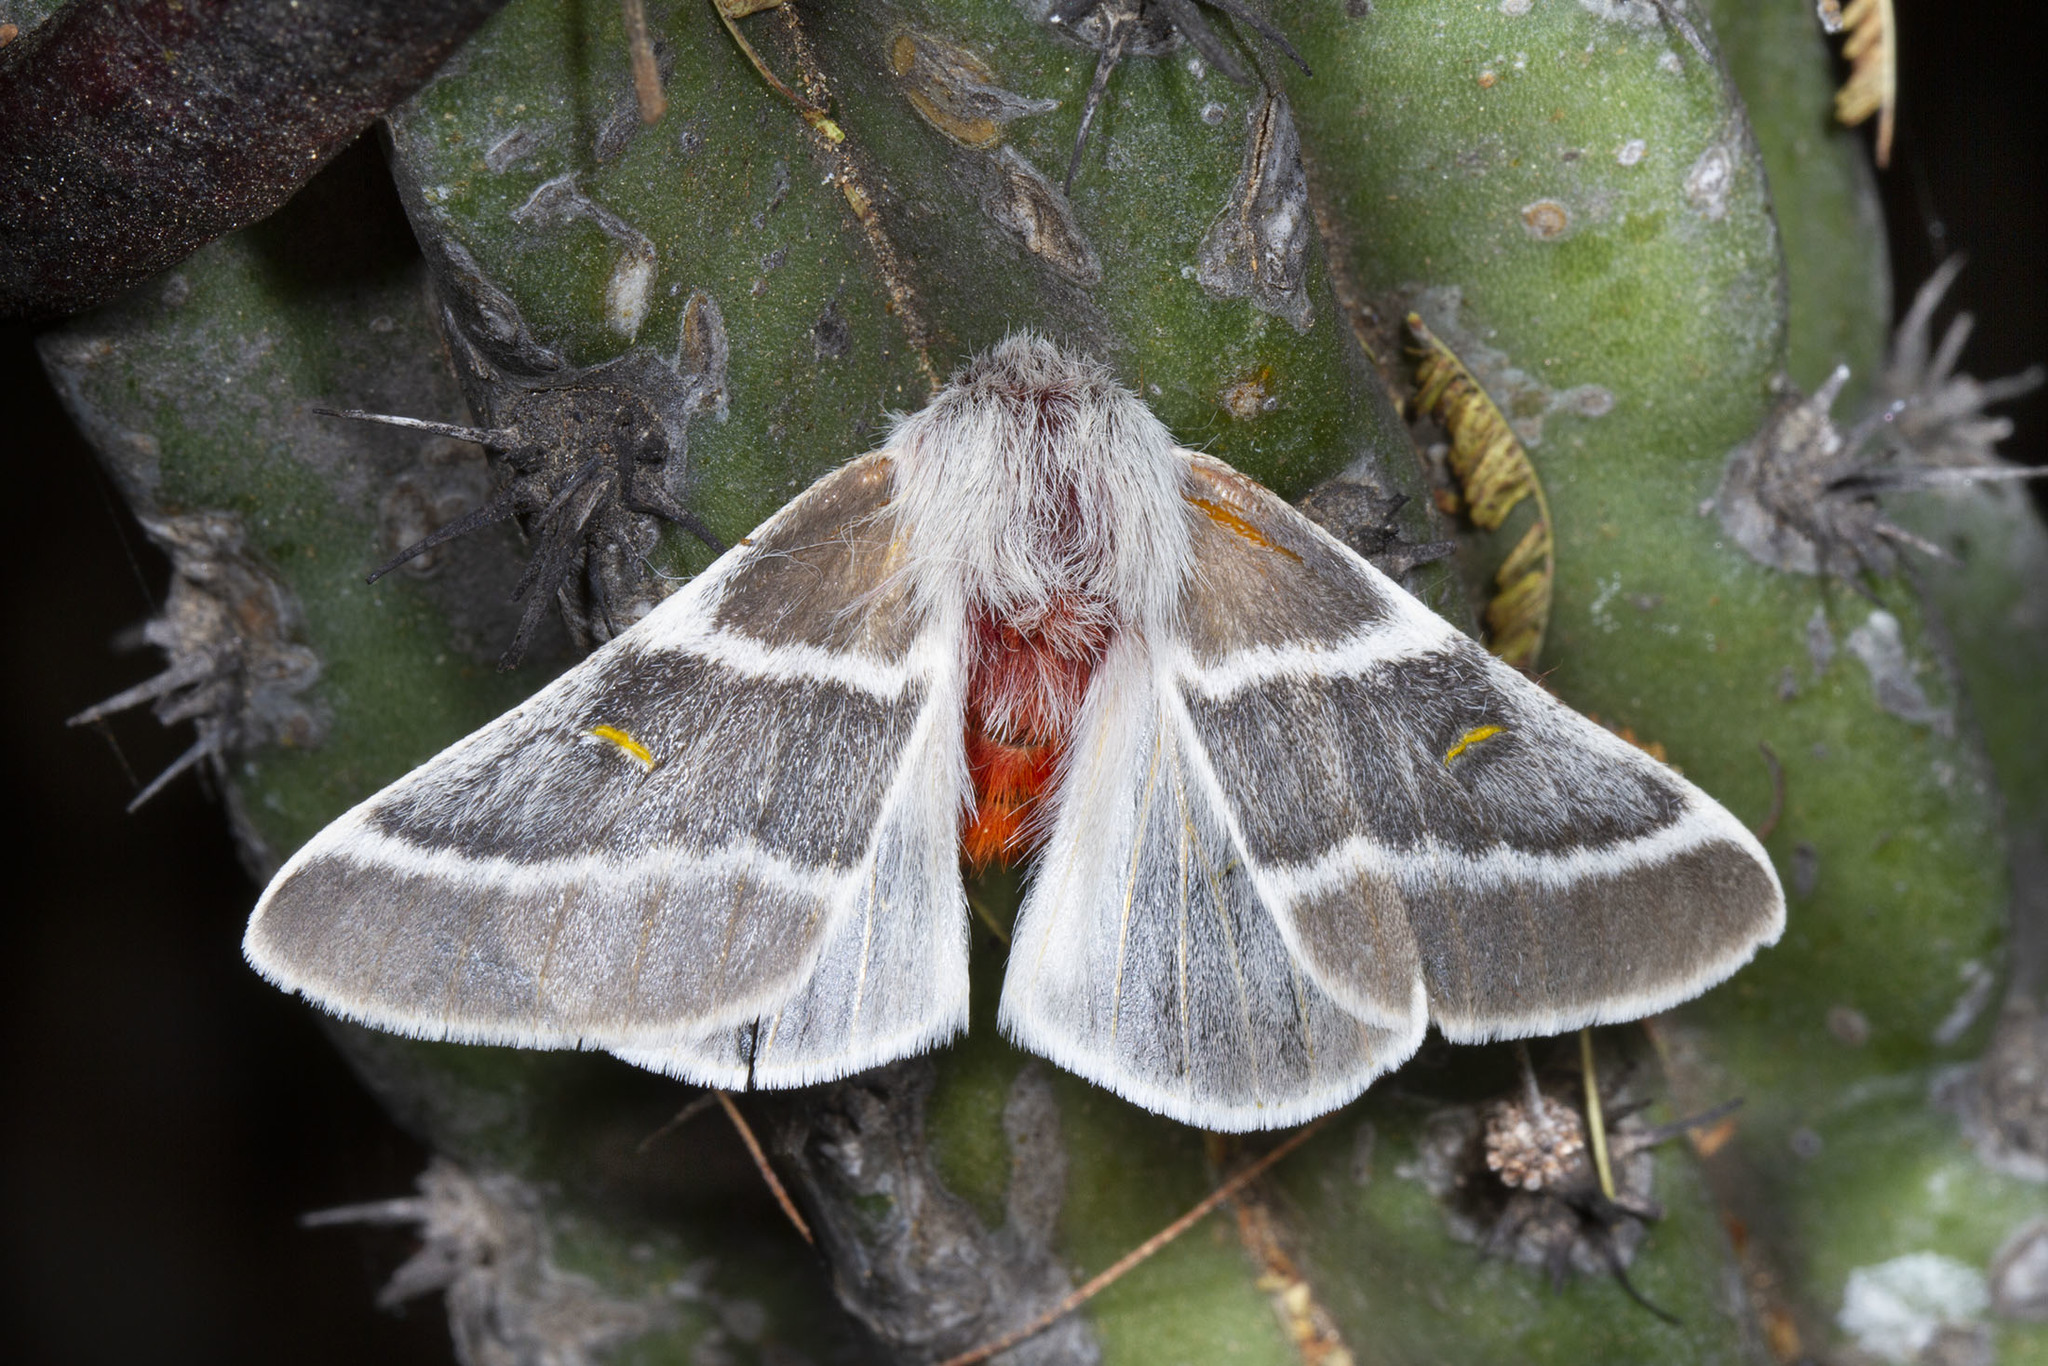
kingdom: Animalia
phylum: Arthropoda
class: Insecta
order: Lepidoptera
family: Saturniidae
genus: Hemileuca
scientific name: Hemileuca sororius
